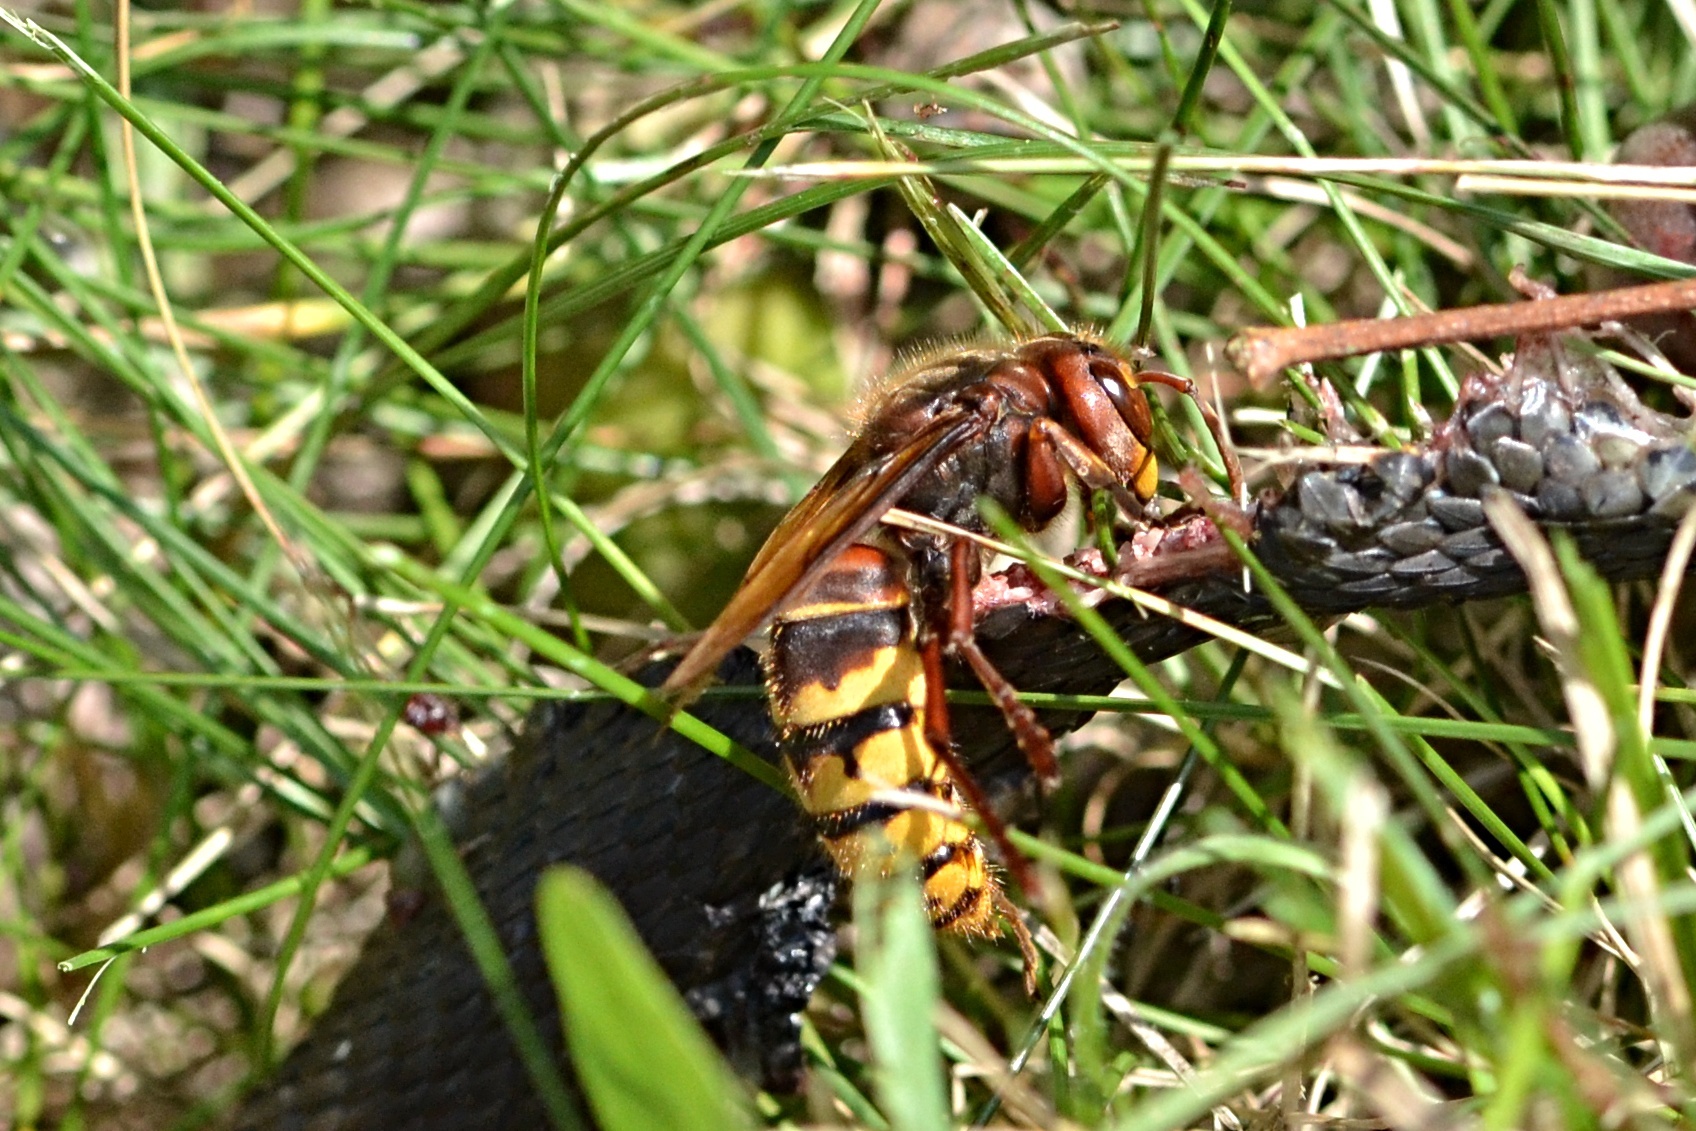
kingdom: Animalia
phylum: Arthropoda
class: Insecta
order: Hymenoptera
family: Vespidae
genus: Vespa
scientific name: Vespa crabro
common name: Hornet
